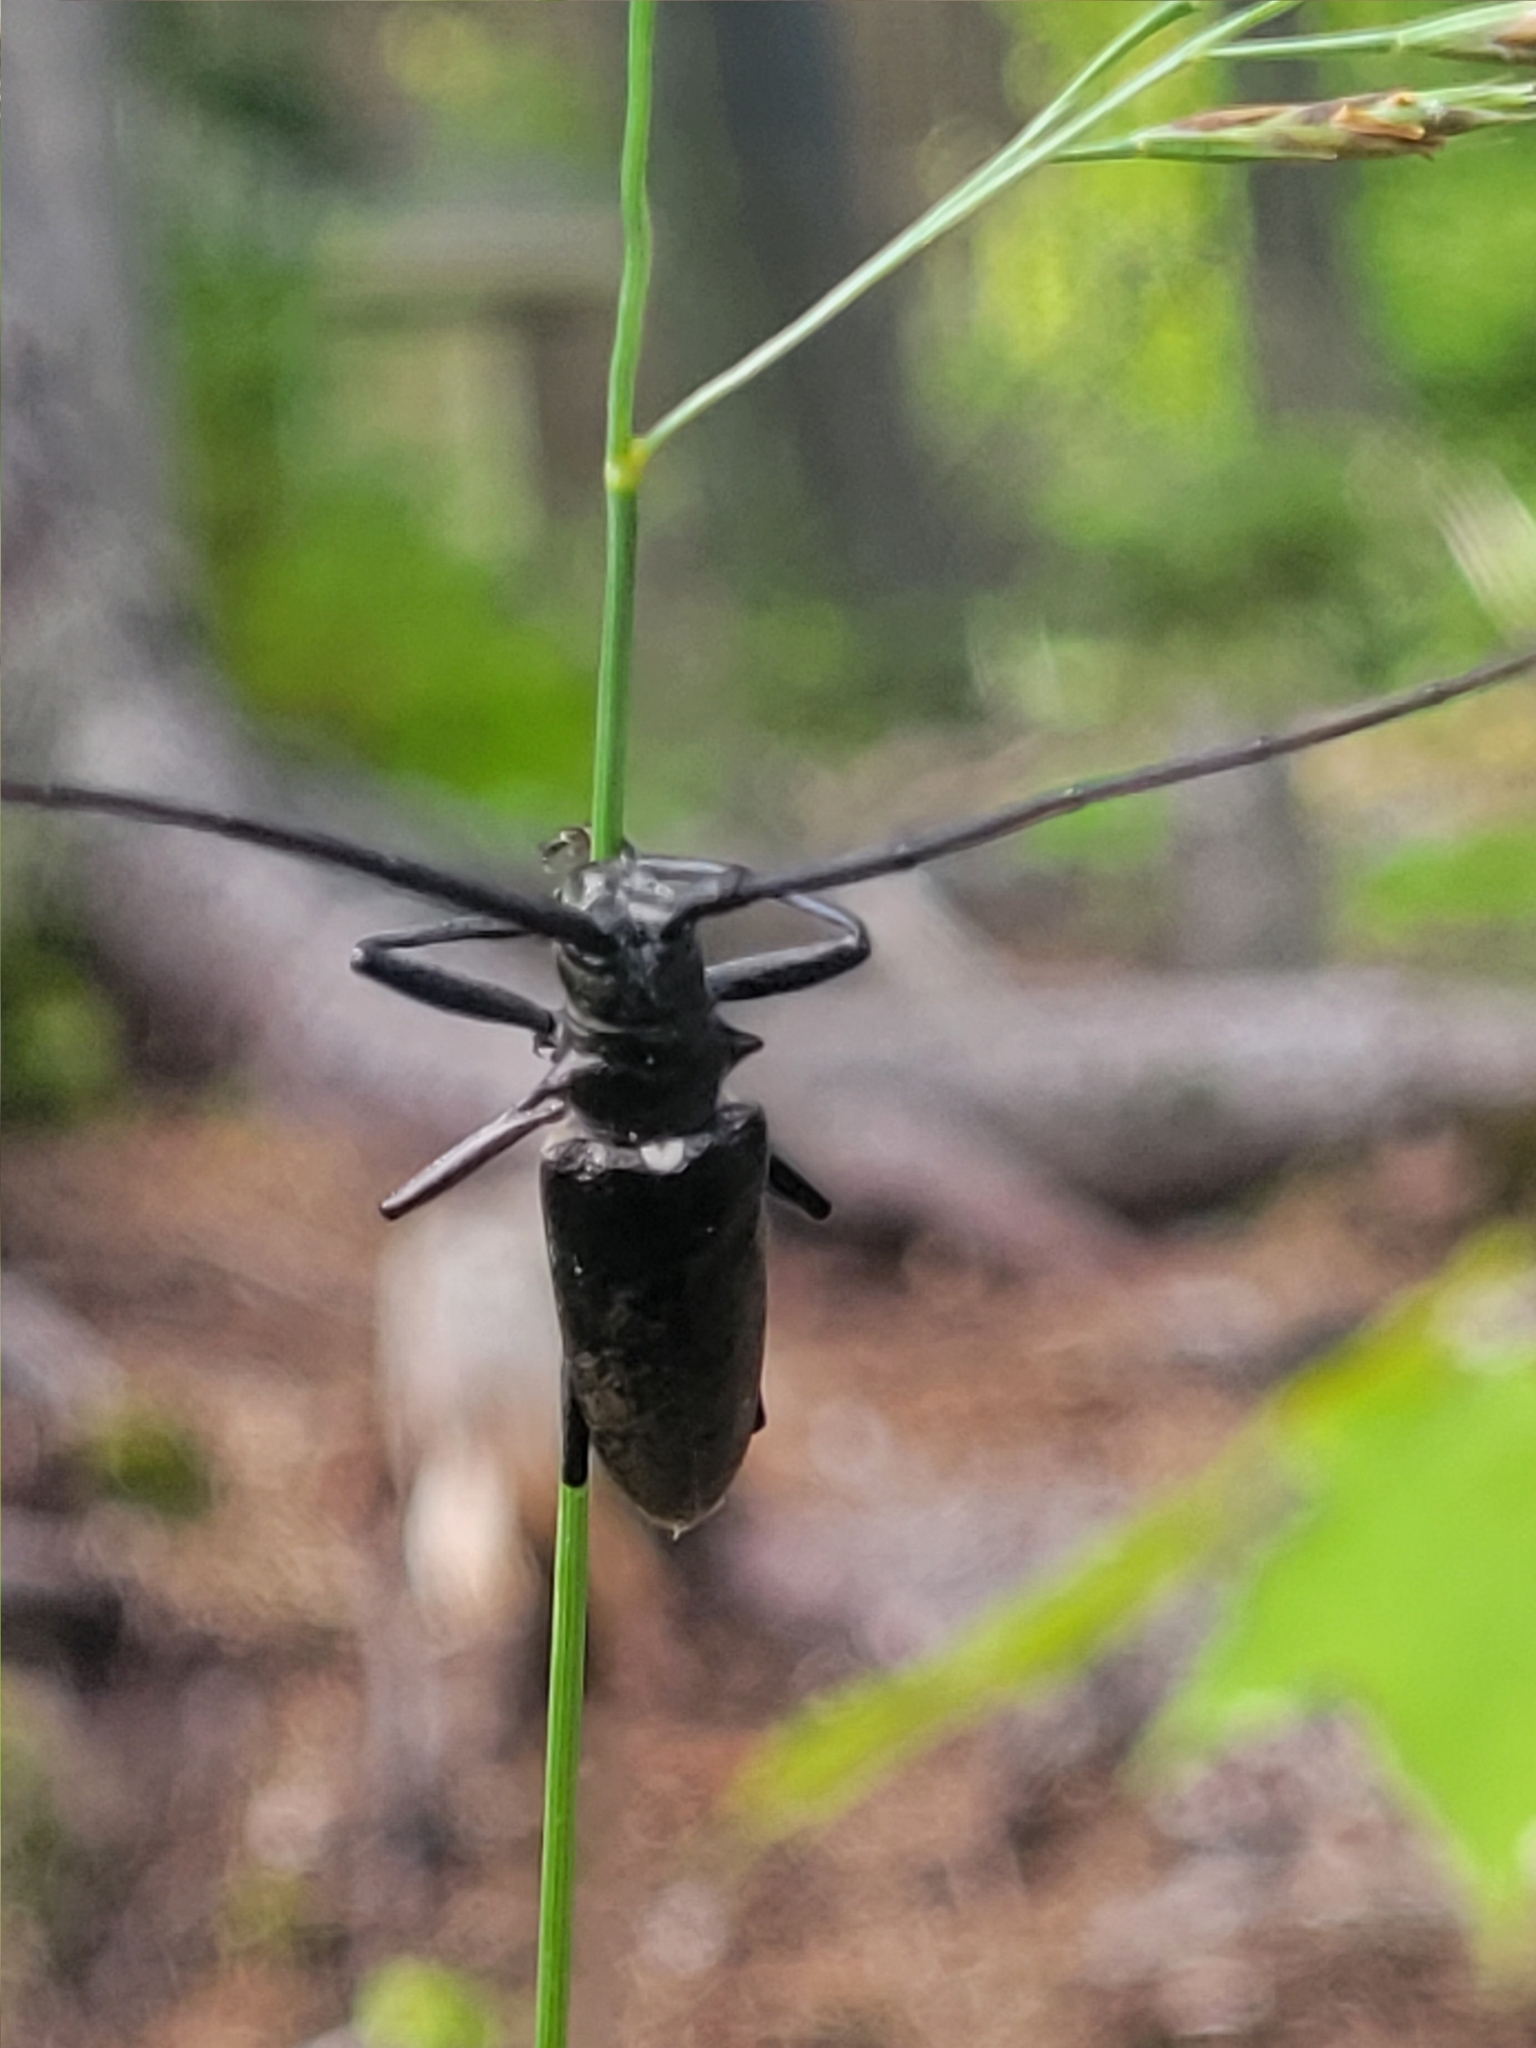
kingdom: Animalia
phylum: Arthropoda
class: Insecta
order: Coleoptera
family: Cerambycidae
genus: Monochamus
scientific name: Monochamus scutellatus
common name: White-spotted sawyer beetle
